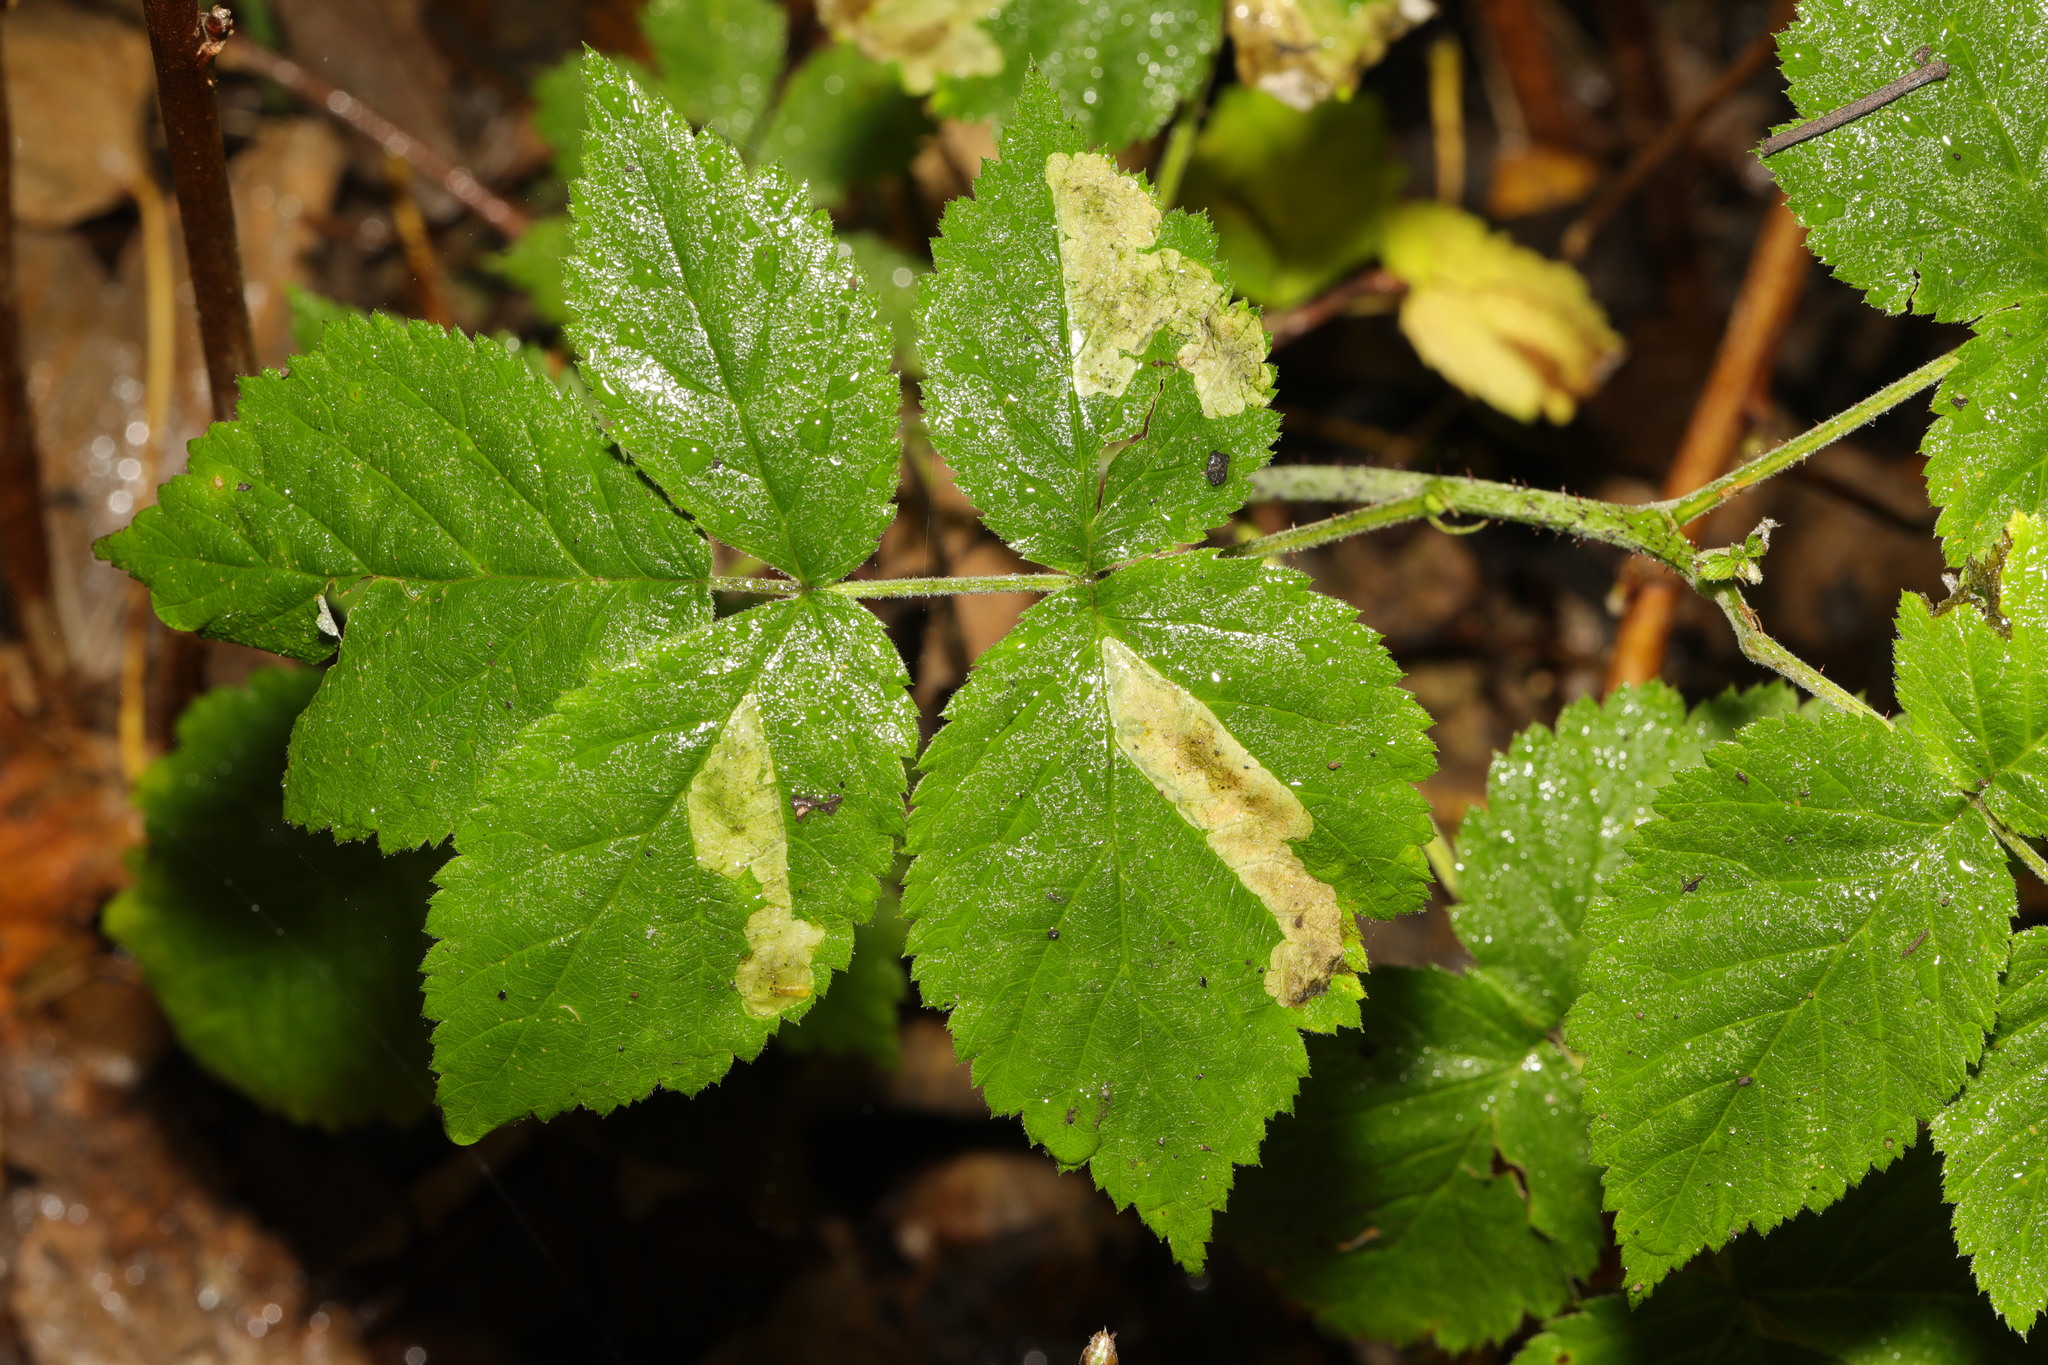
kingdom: Plantae
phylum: Tracheophyta
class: Magnoliopsida
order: Rosales
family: Rosaceae
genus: Rubus
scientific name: Rubus idaeus
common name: Raspberry
